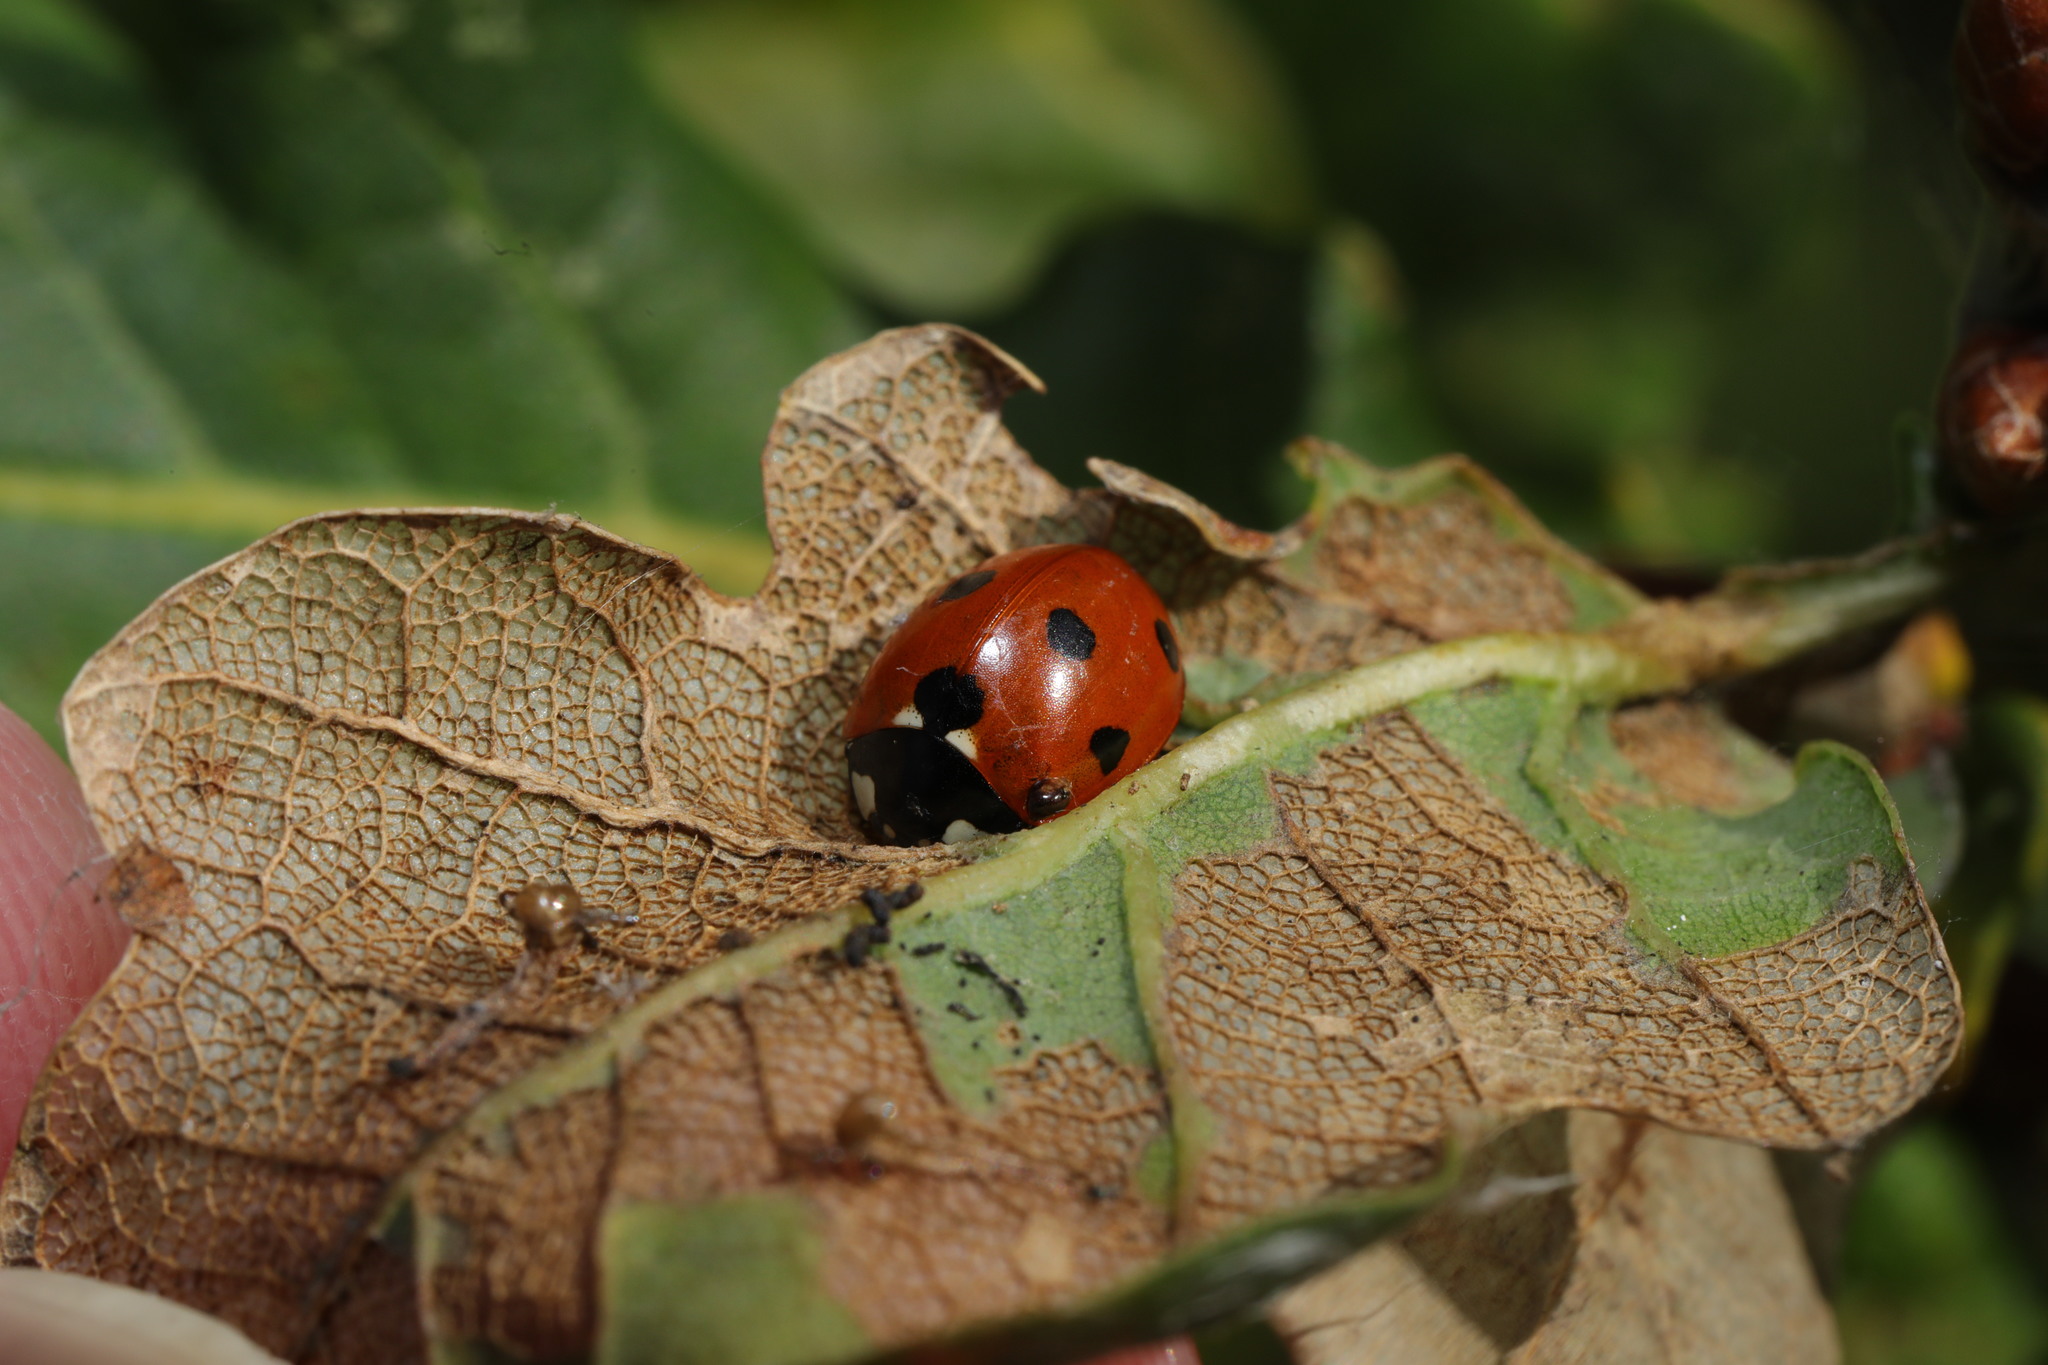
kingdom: Animalia
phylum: Arthropoda
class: Insecta
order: Coleoptera
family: Coccinellidae
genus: Coccinella
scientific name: Coccinella septempunctata
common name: Sevenspotted lady beetle
